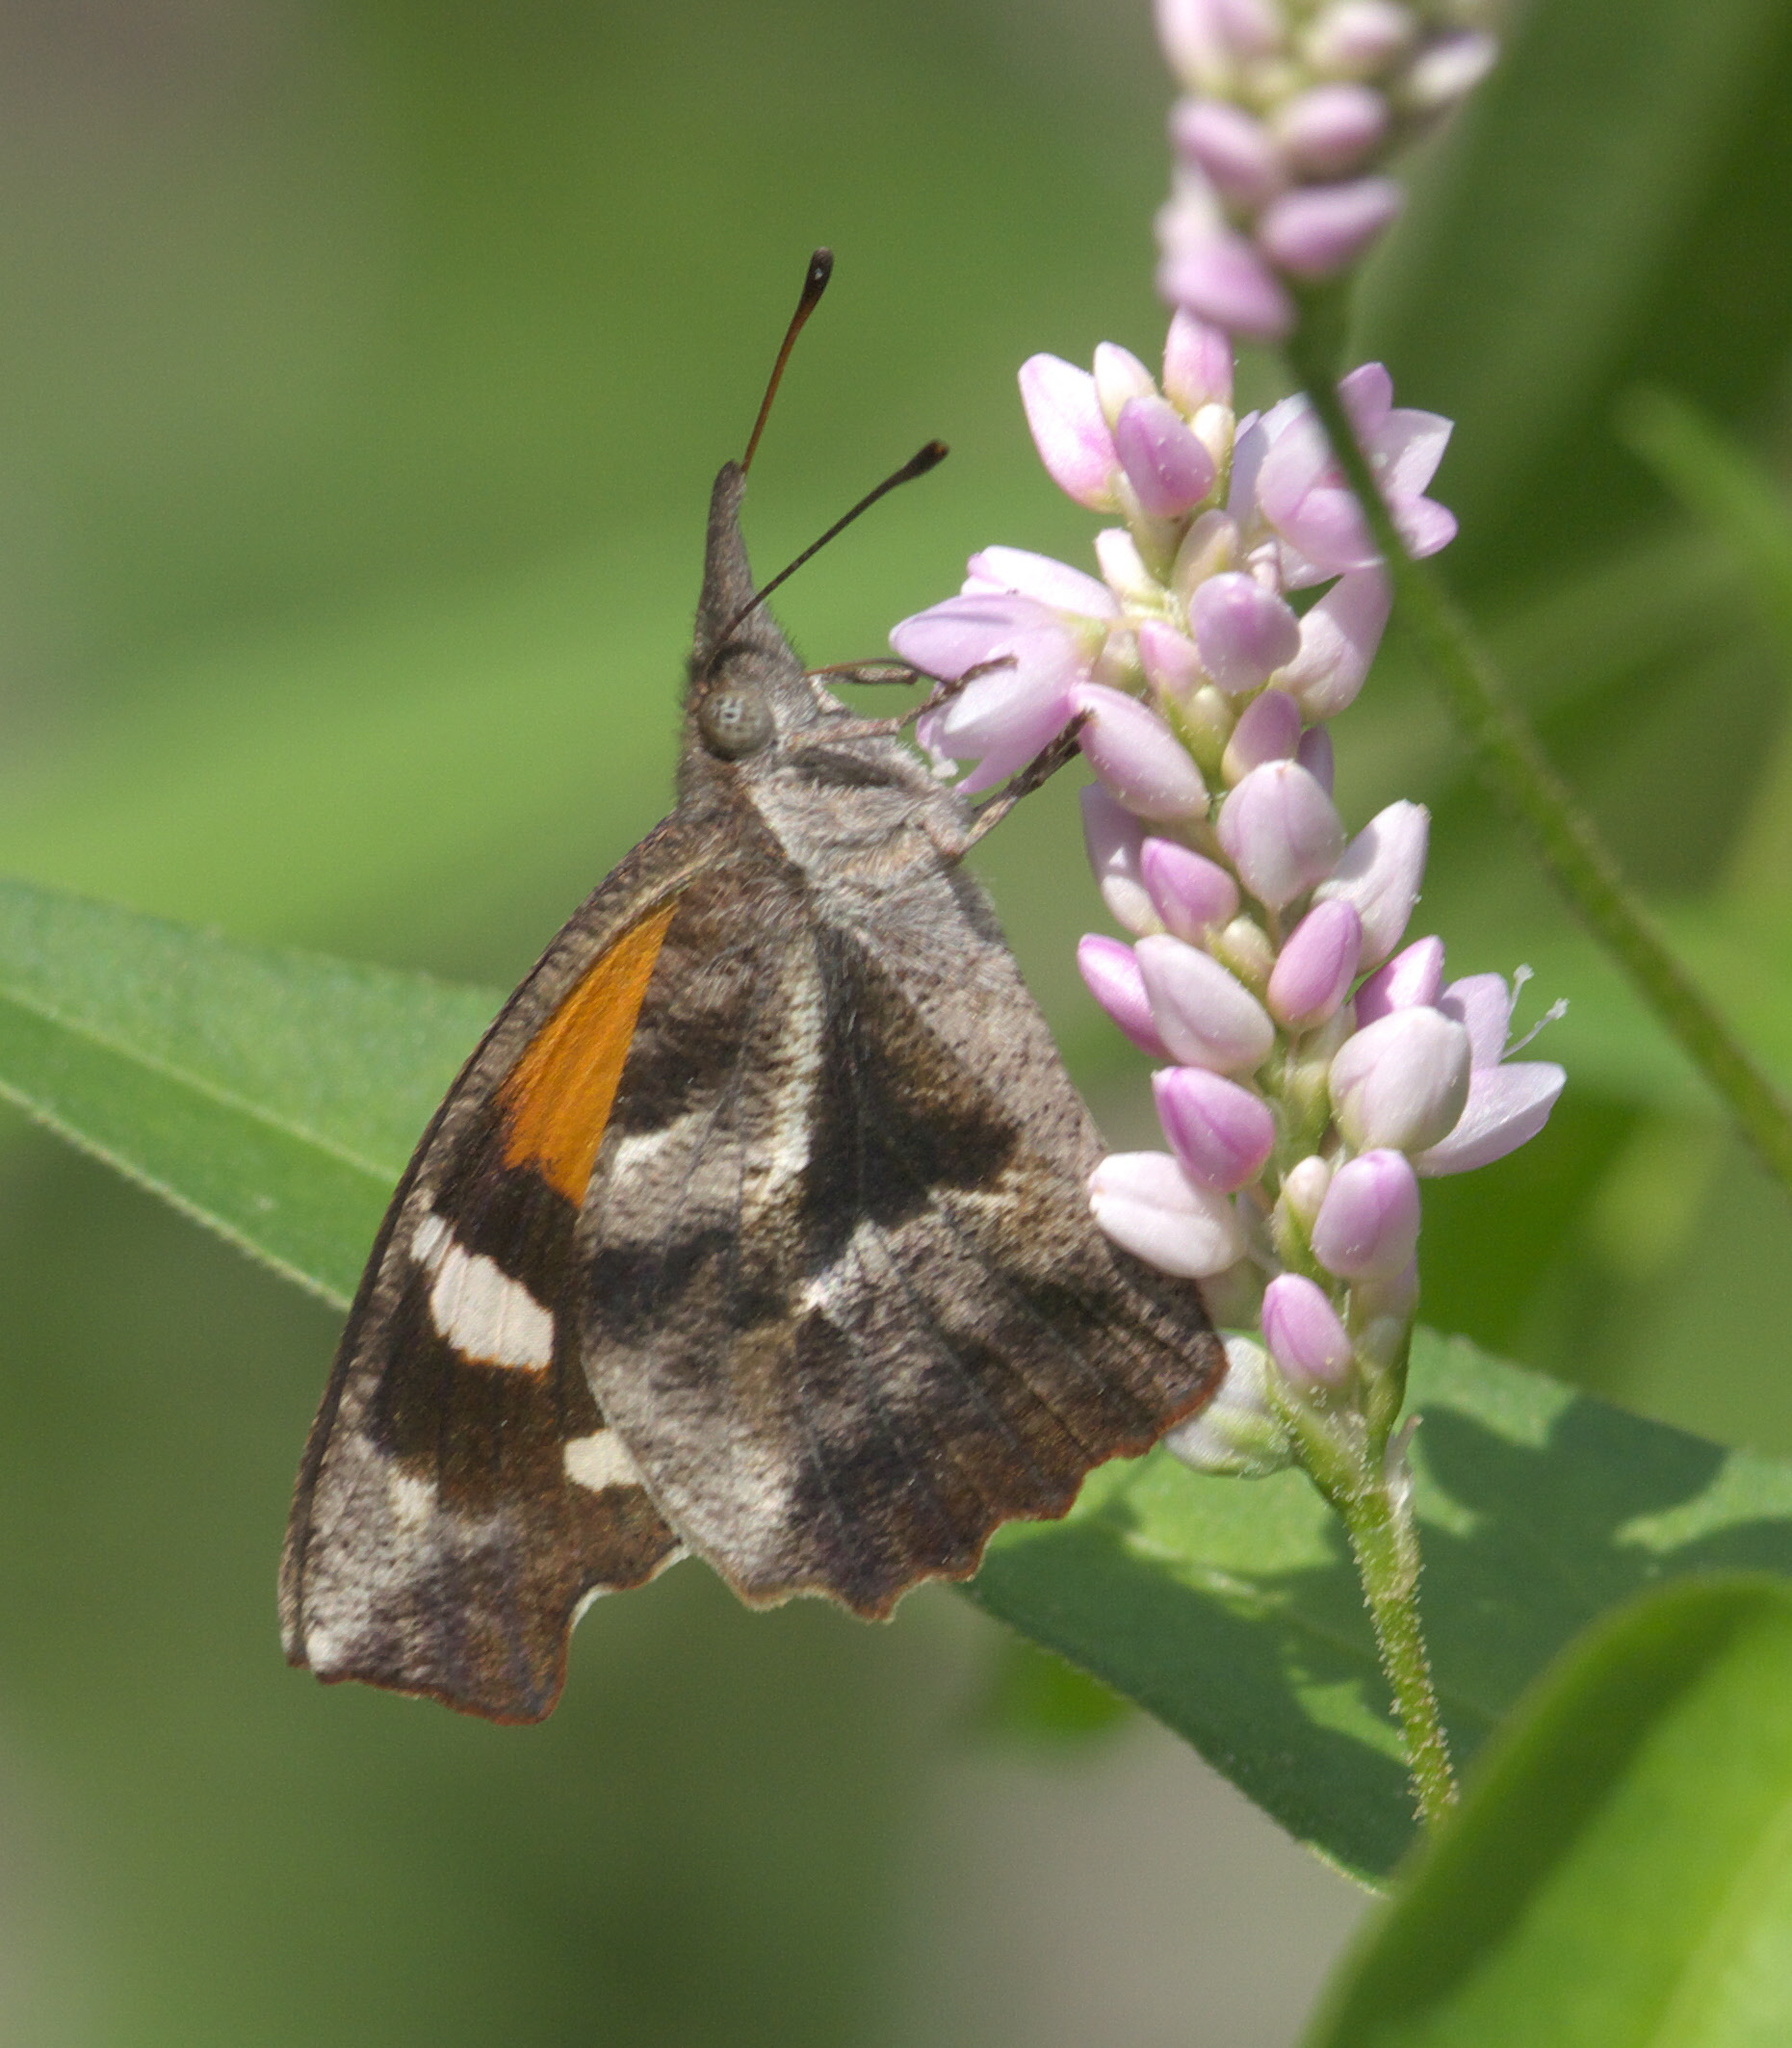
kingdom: Animalia
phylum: Arthropoda
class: Insecta
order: Lepidoptera
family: Nymphalidae
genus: Libytheana
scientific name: Libytheana carinenta
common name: American snout
